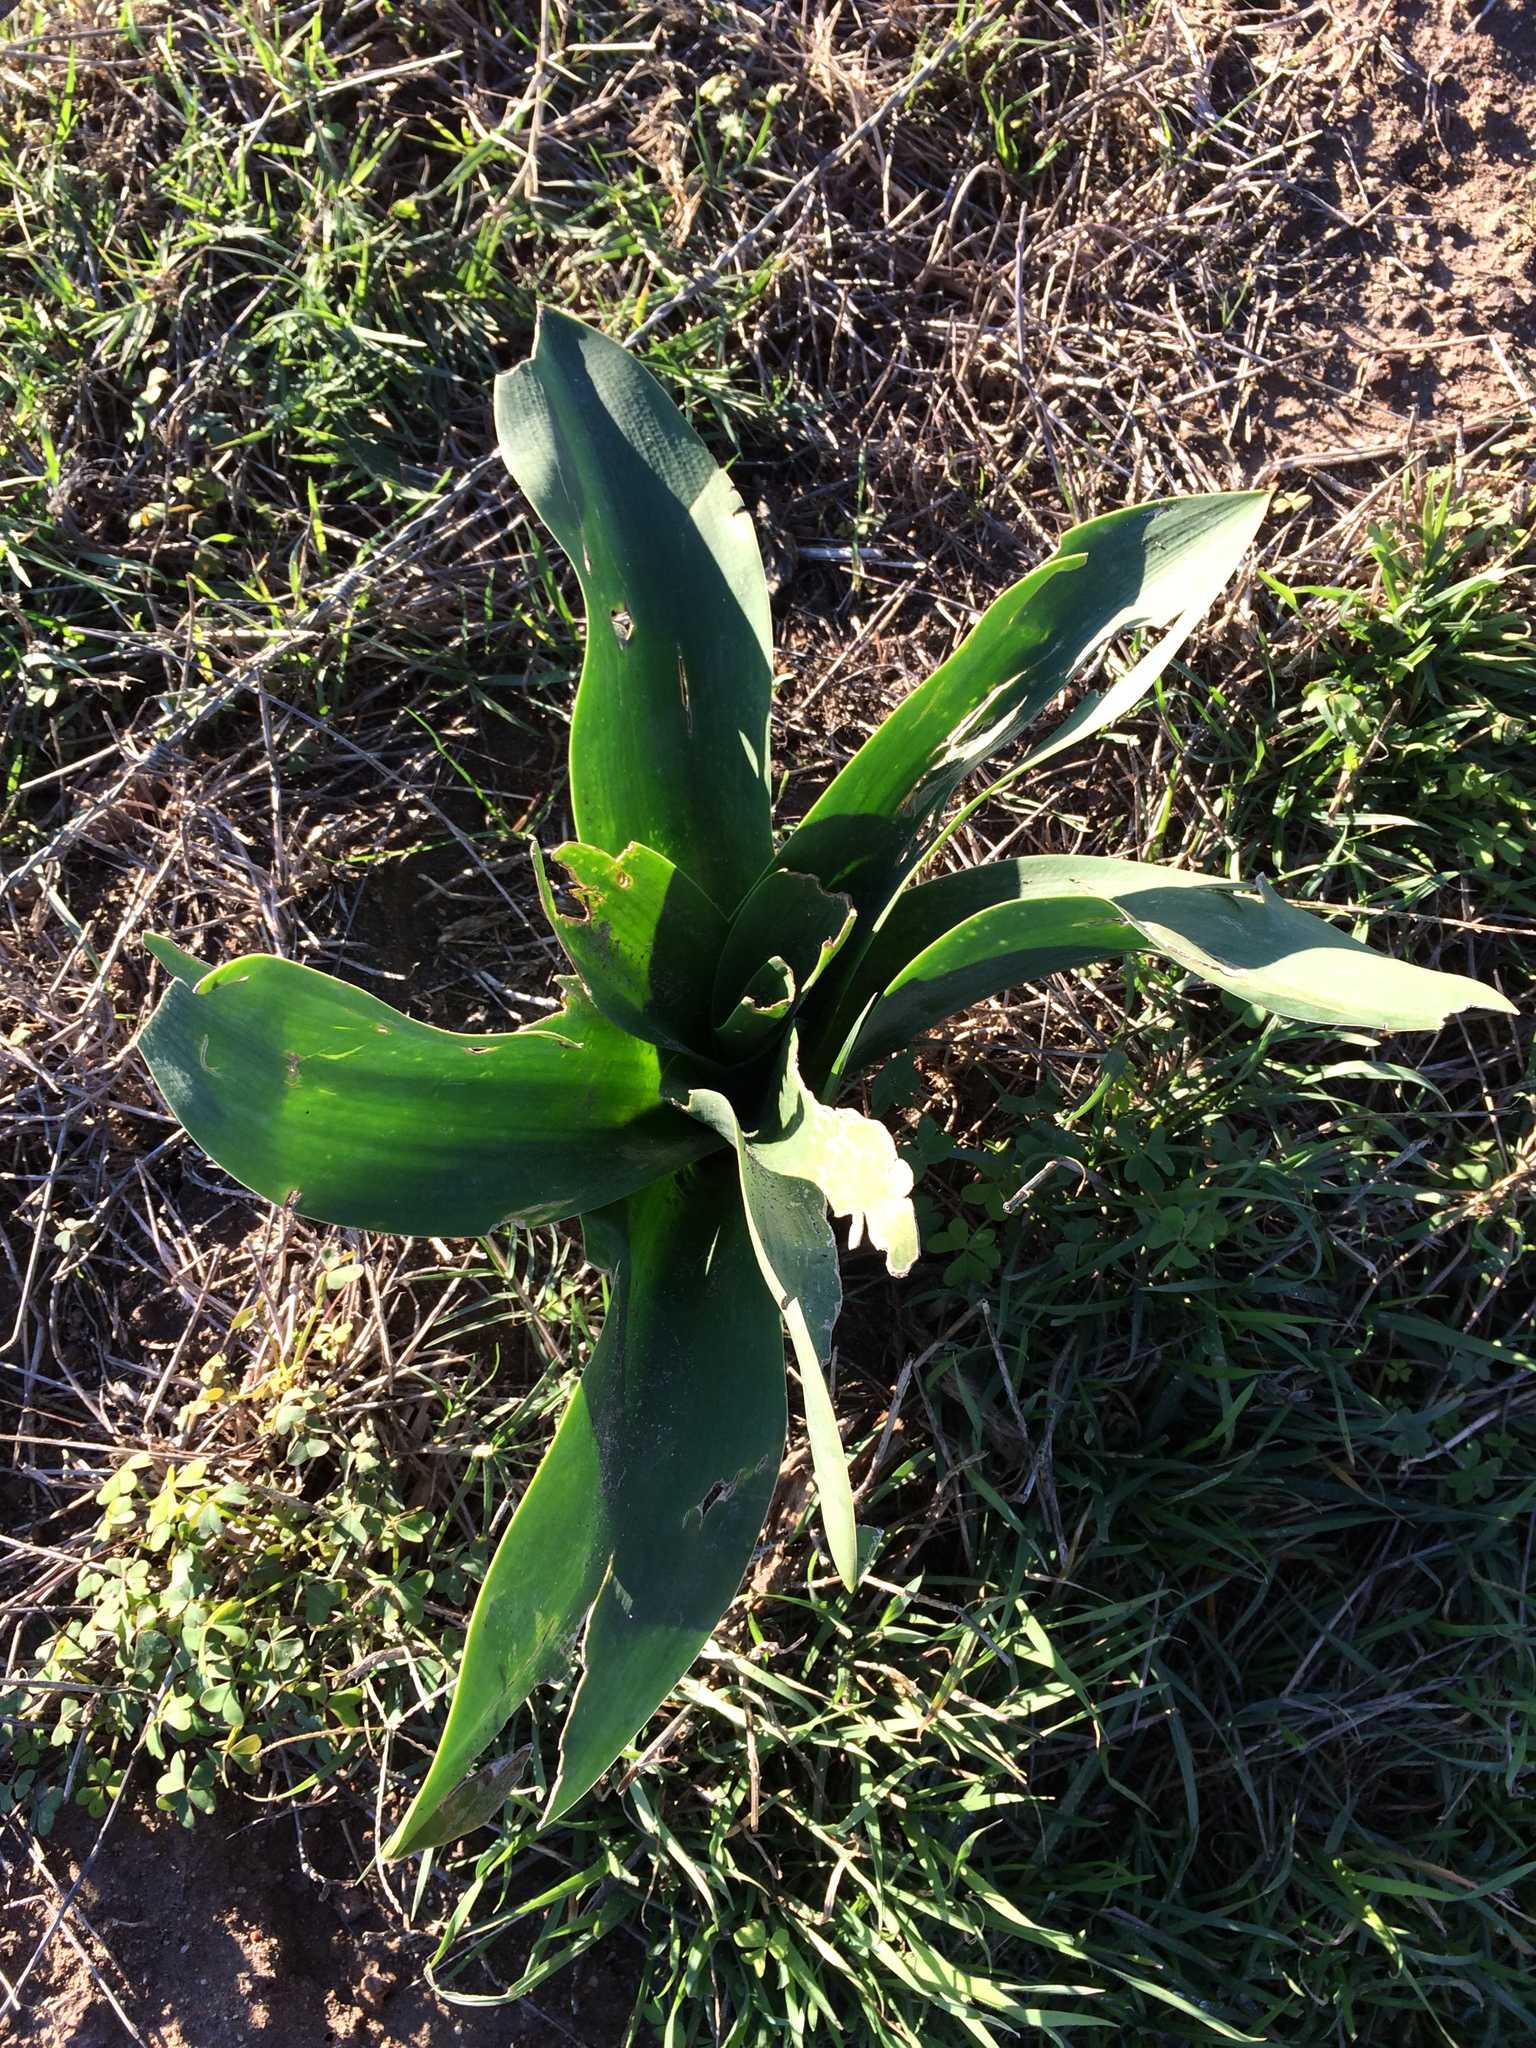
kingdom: Plantae
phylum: Tracheophyta
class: Liliopsida
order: Asparagales
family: Asparagaceae
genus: Drimia
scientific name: Drimia capensis
